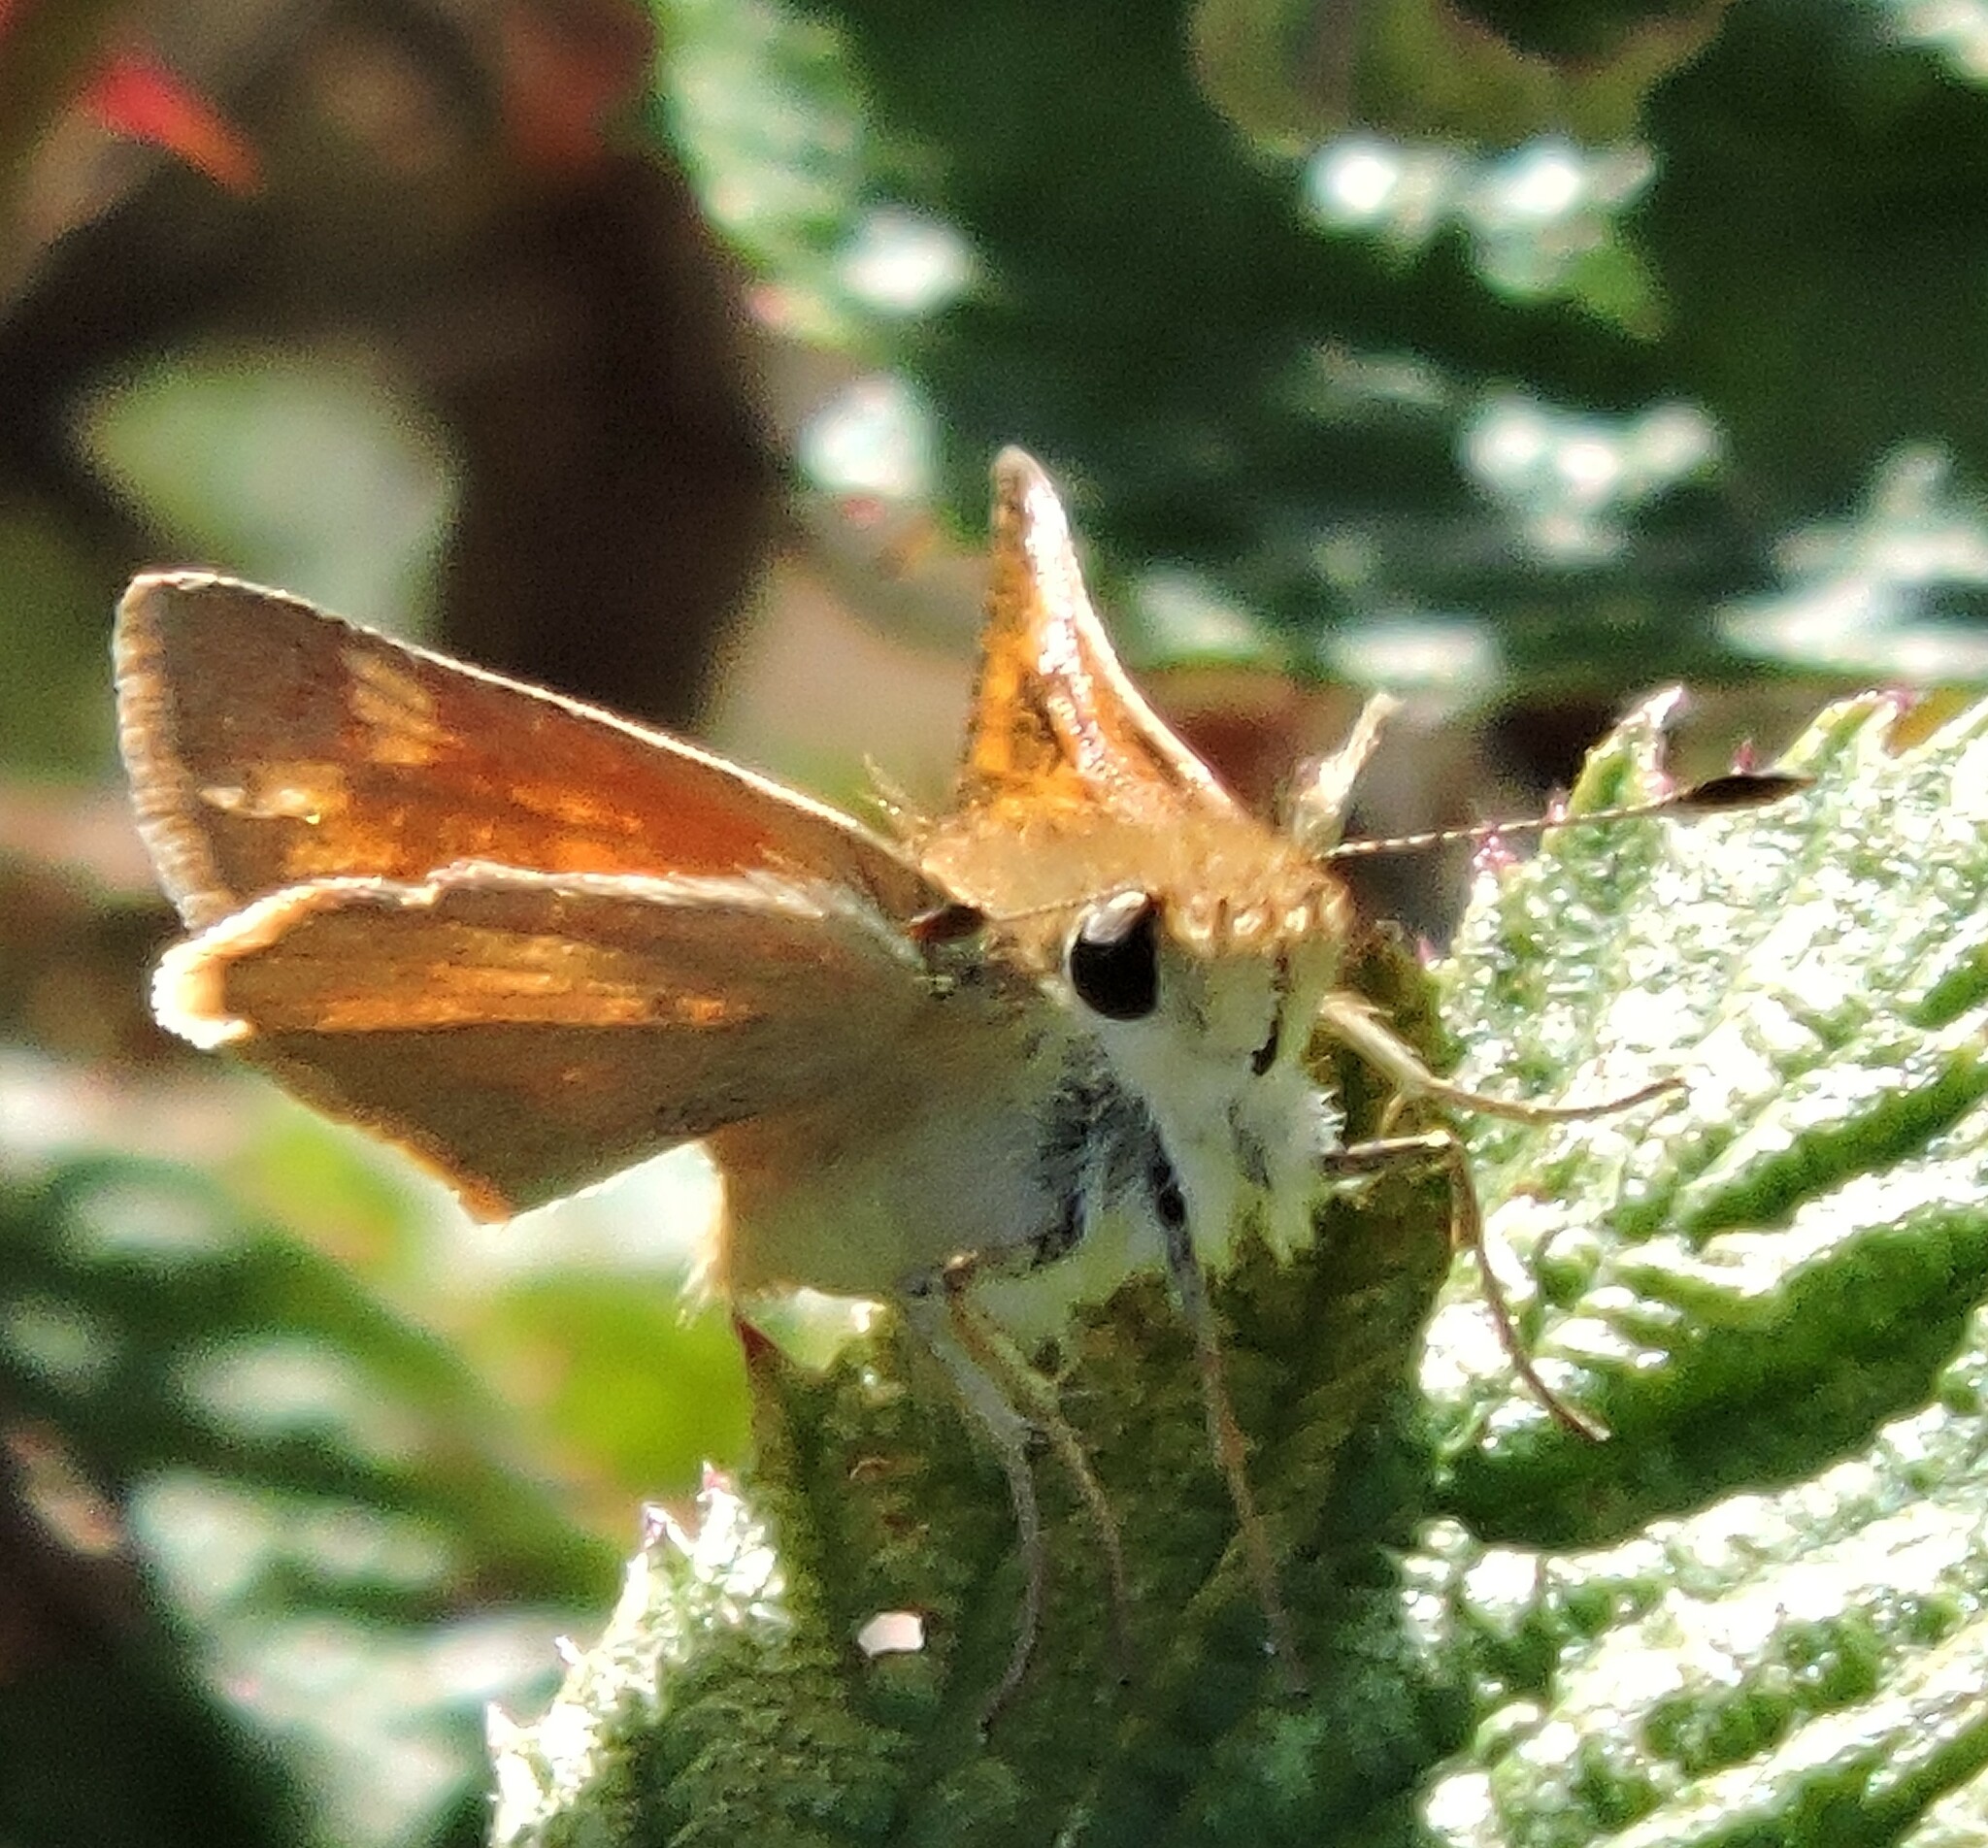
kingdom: Animalia
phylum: Arthropoda
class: Insecta
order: Lepidoptera
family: Hesperiidae
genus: Ochlodes
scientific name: Ochlodes sylvanoides
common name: Woodland skipper
